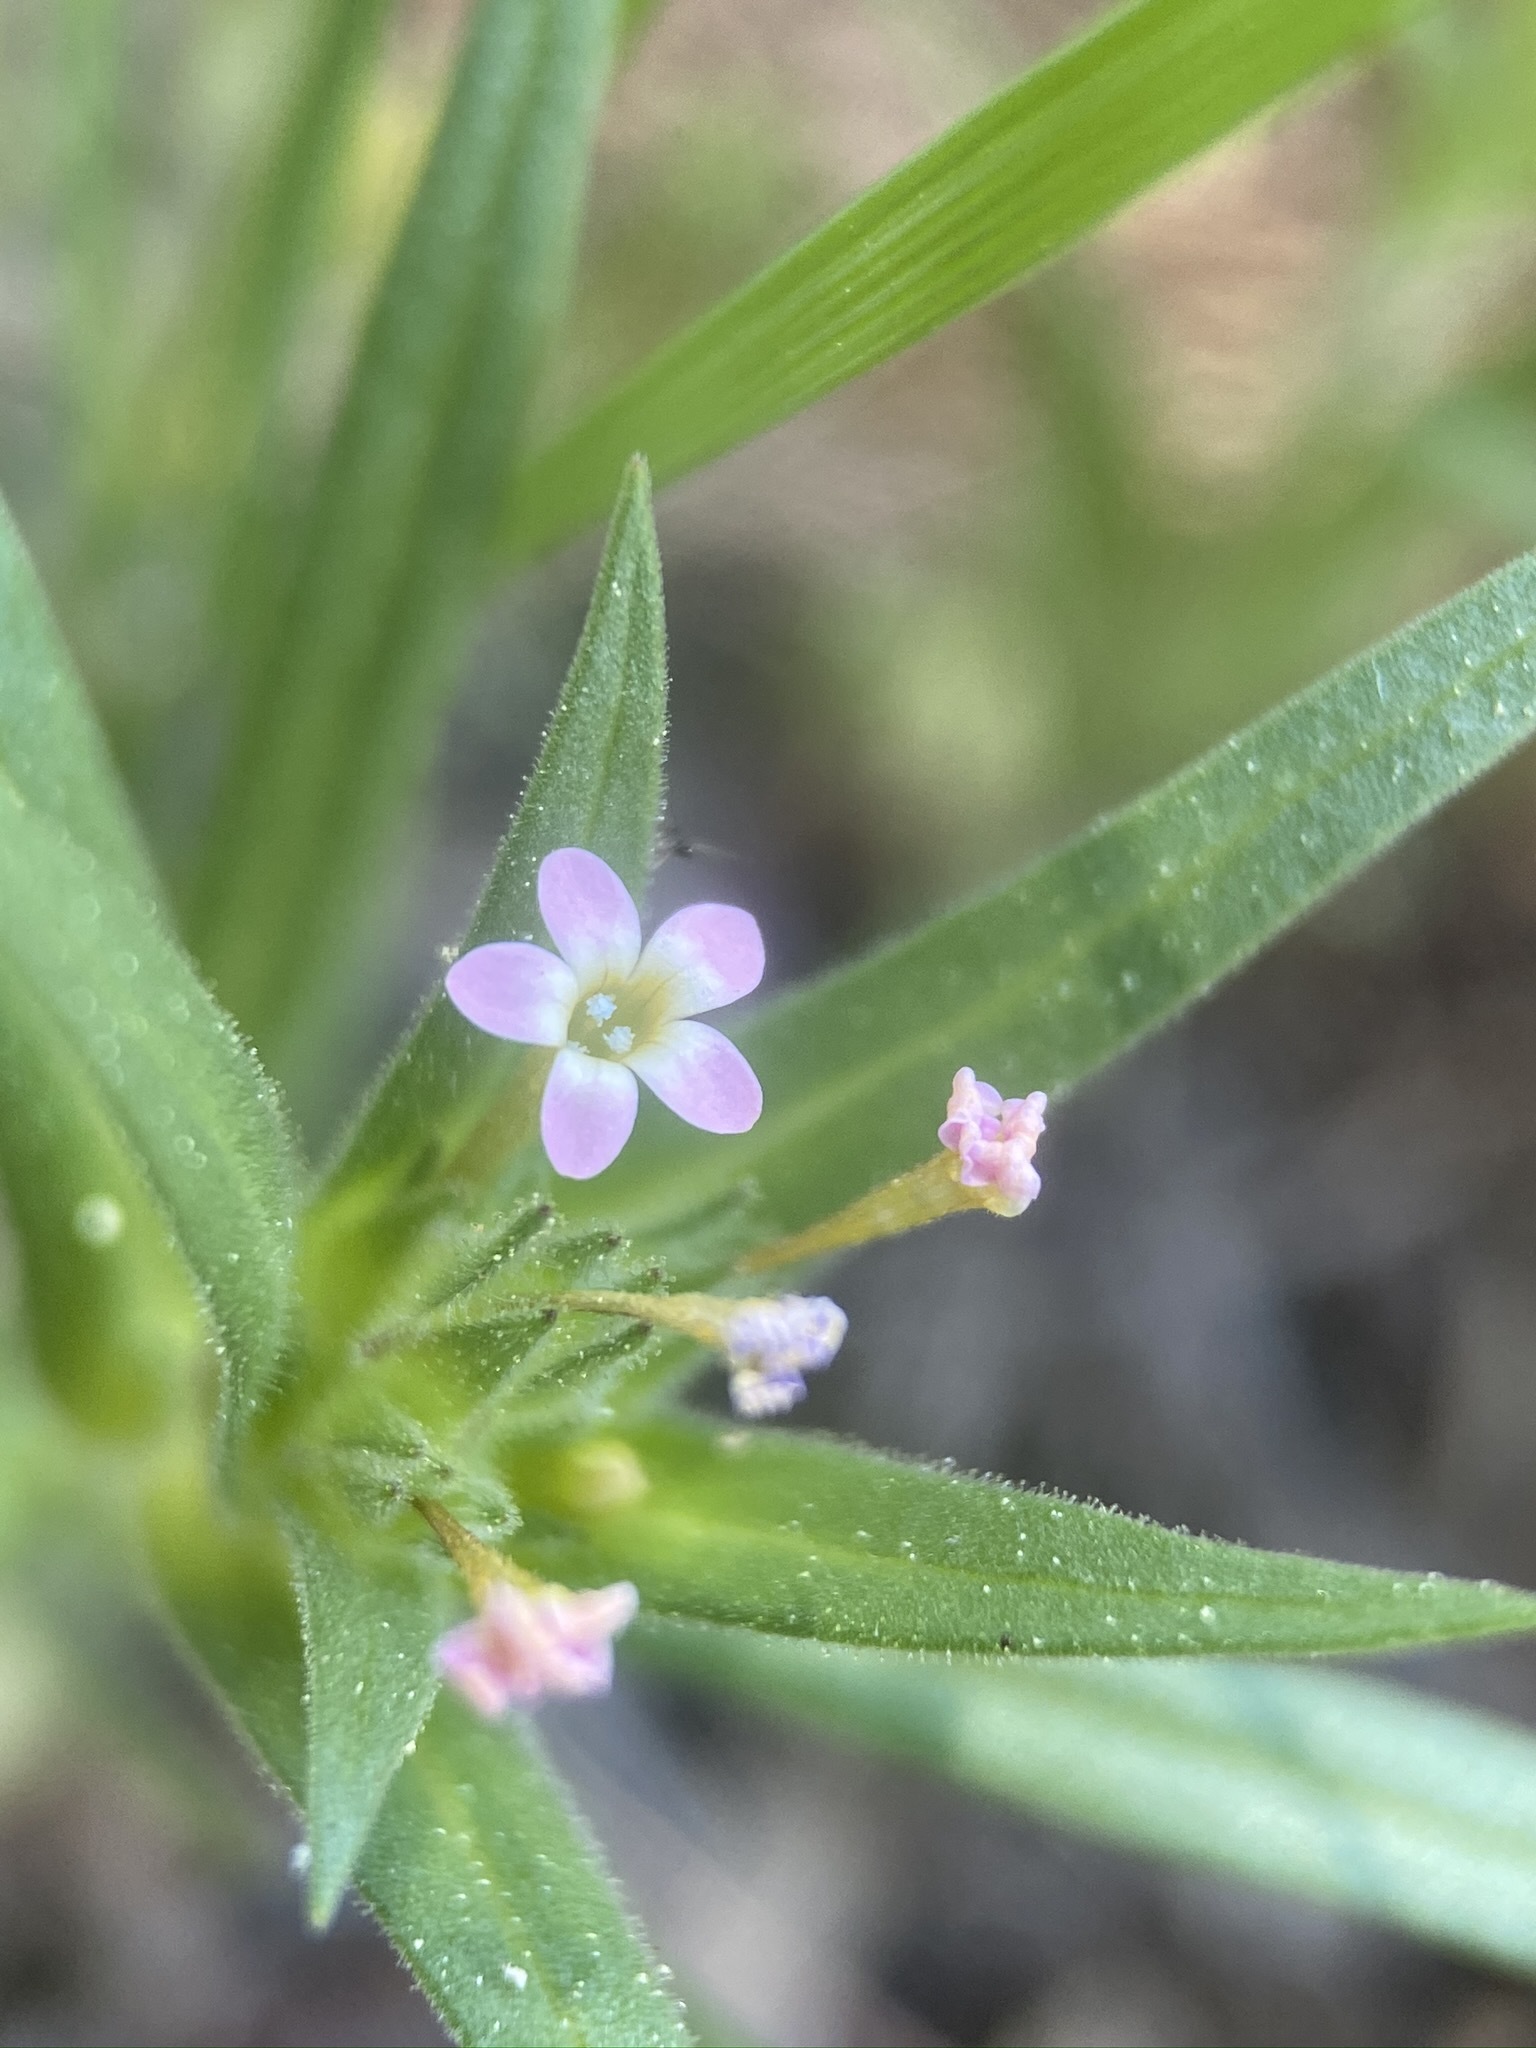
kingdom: Plantae
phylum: Tracheophyta
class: Magnoliopsida
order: Ericales
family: Polemoniaceae
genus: Collomia
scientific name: Collomia linearis
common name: Tiny trumpet
